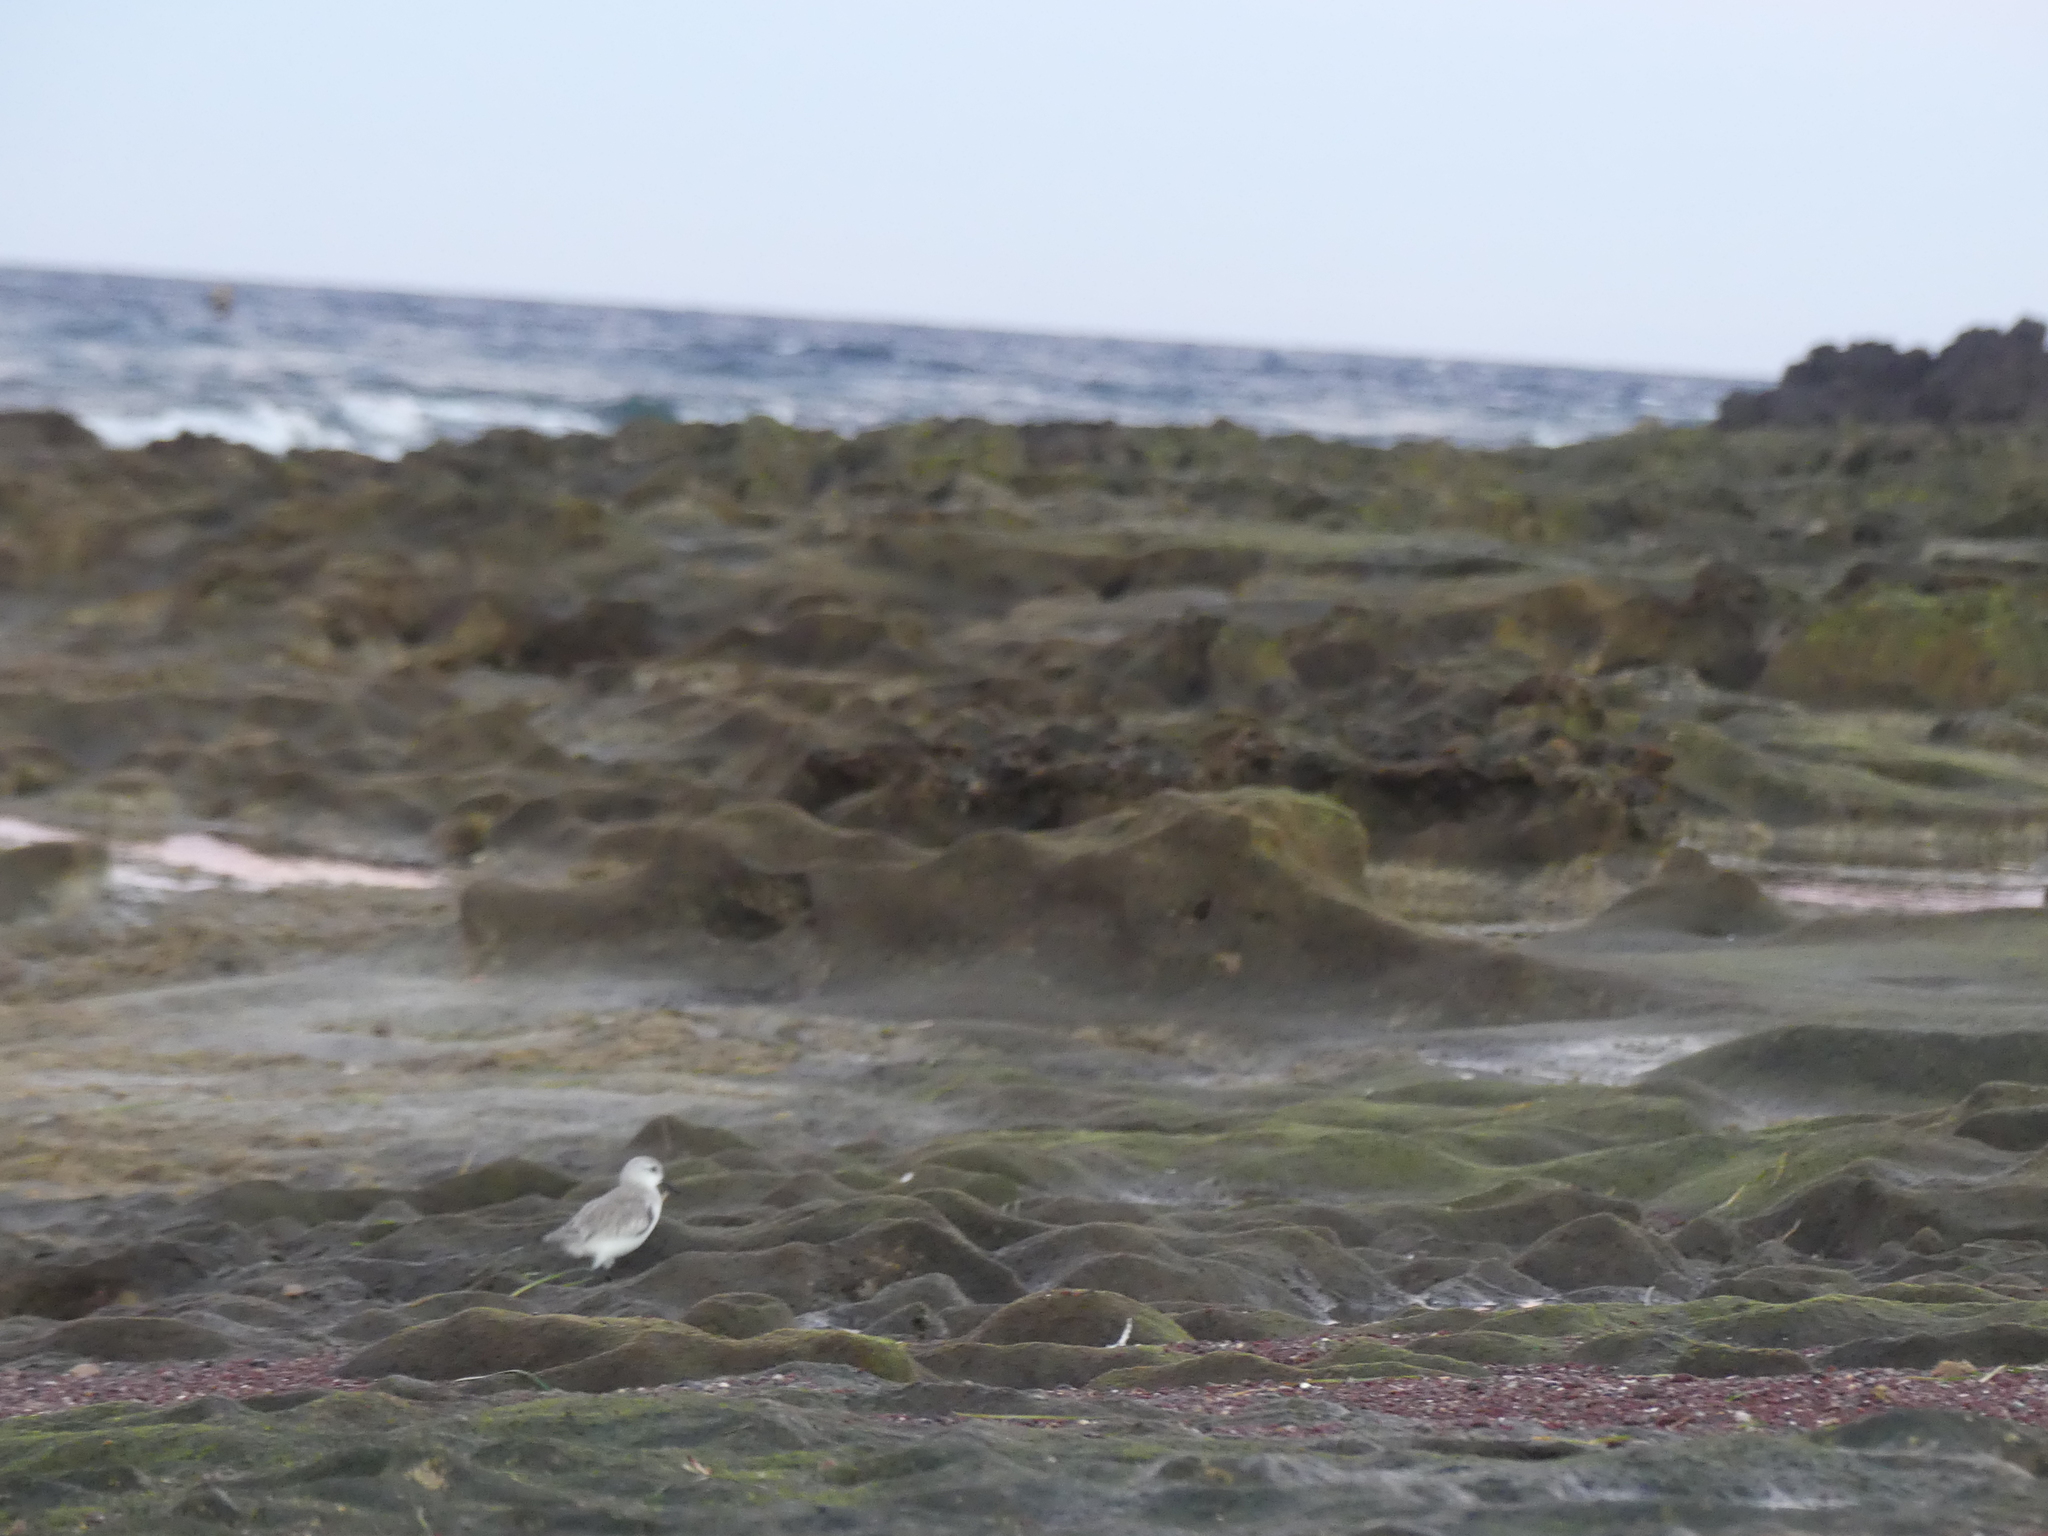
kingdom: Animalia
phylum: Chordata
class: Aves
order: Charadriiformes
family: Scolopacidae
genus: Calidris
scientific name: Calidris alba
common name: Sanderling
